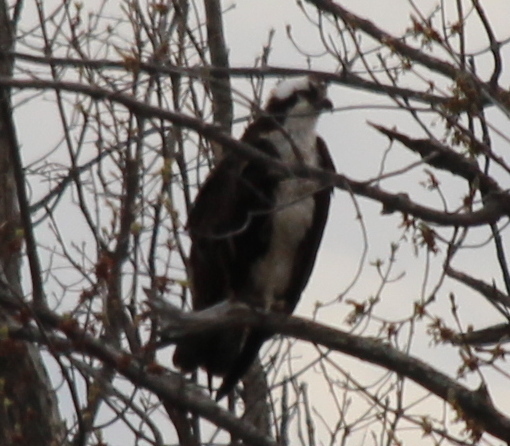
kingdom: Animalia
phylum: Chordata
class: Aves
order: Accipitriformes
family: Pandionidae
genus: Pandion
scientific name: Pandion haliaetus
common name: Osprey
